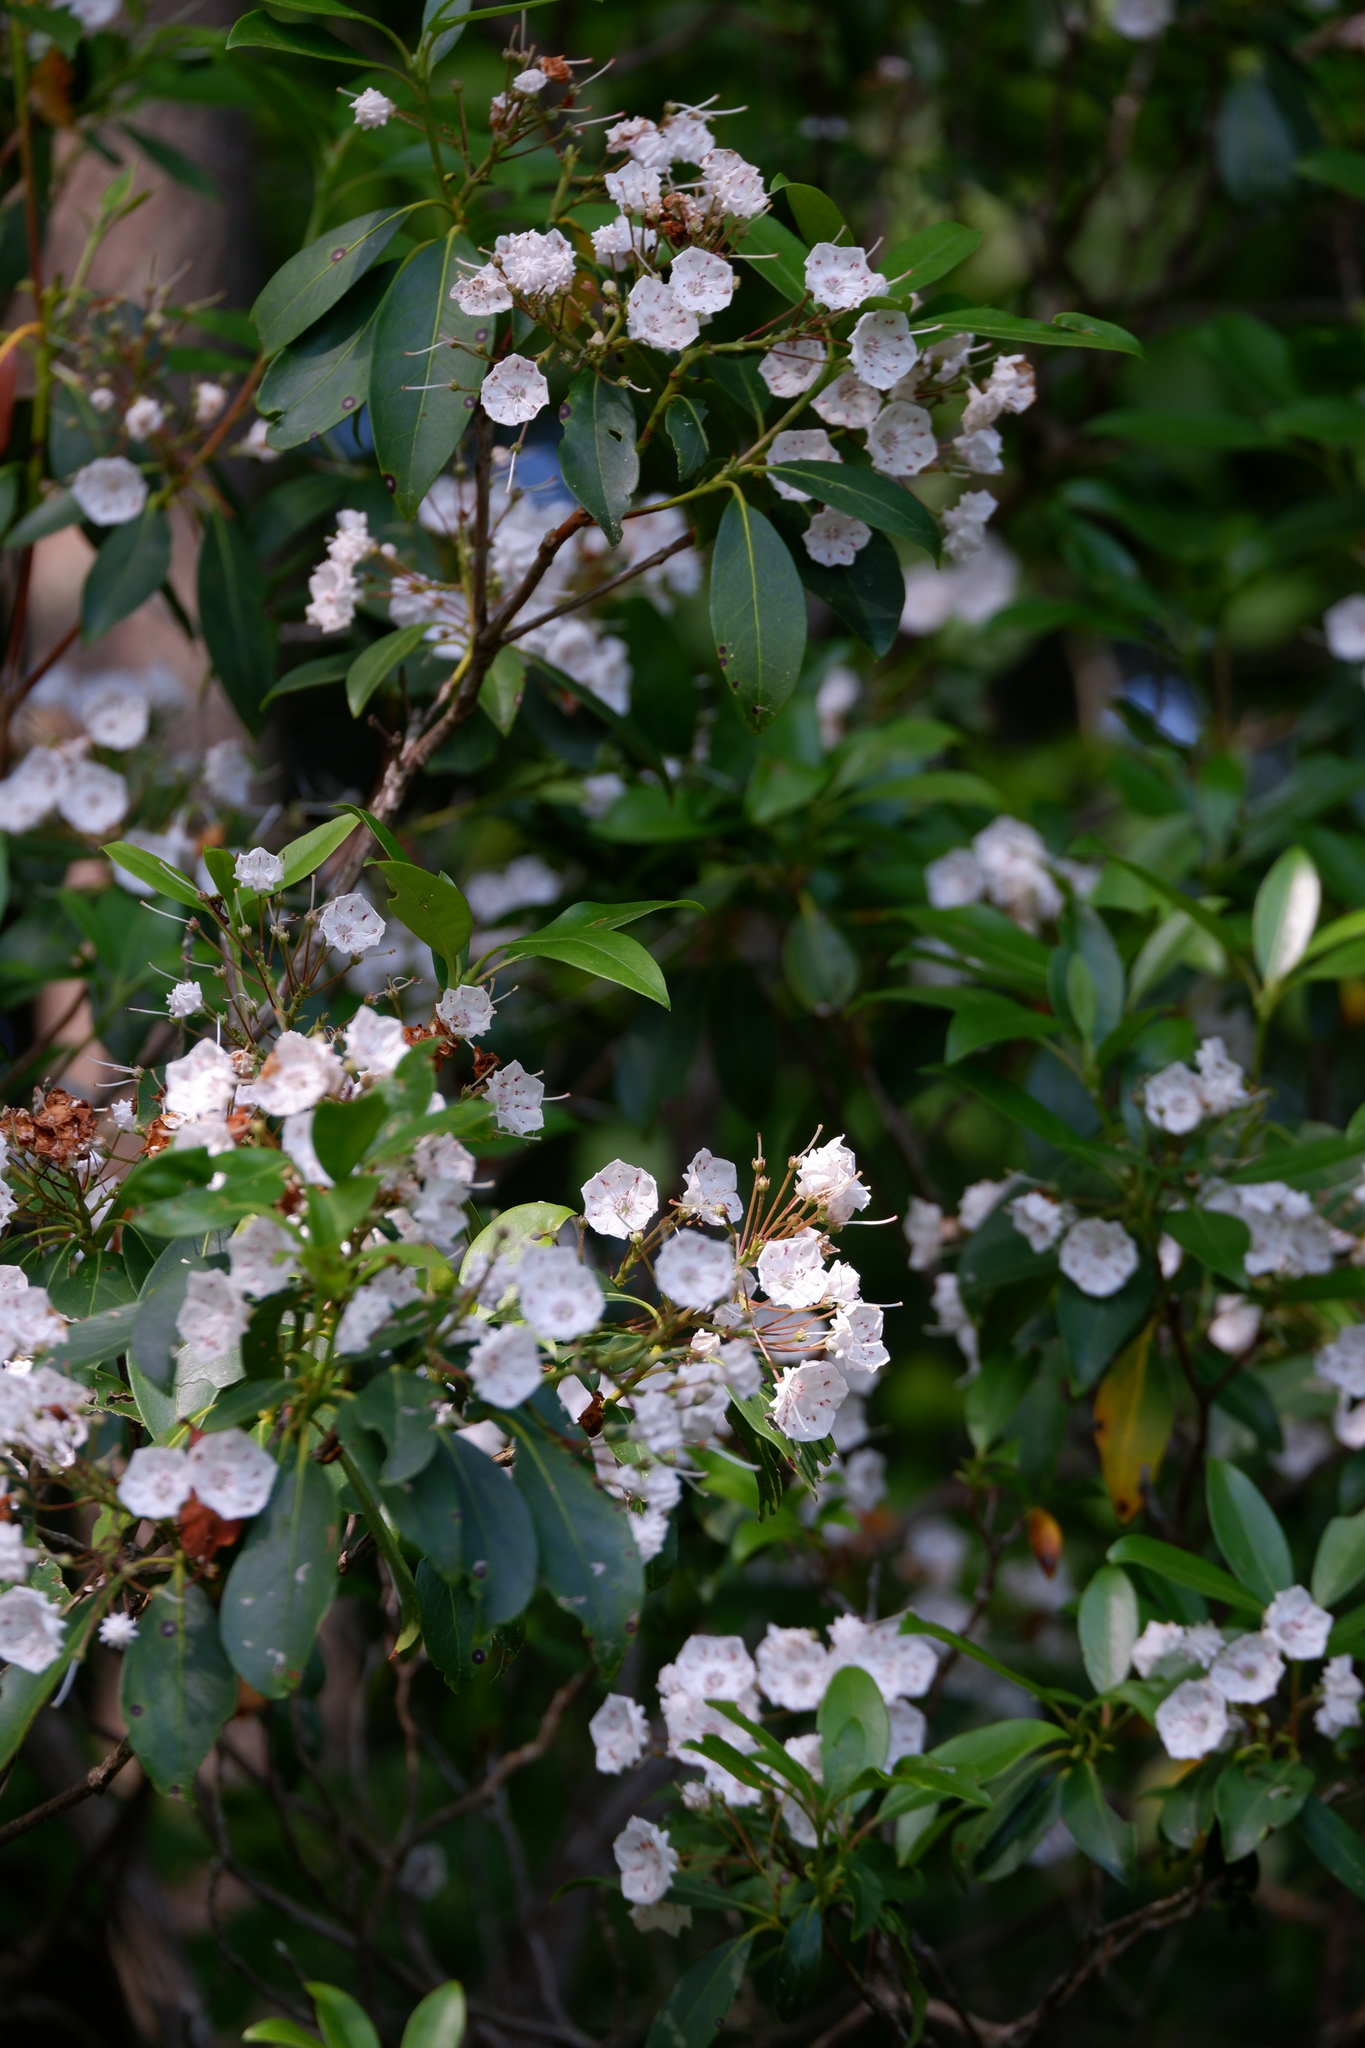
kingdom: Plantae
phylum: Tracheophyta
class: Magnoliopsida
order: Ericales
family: Ericaceae
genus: Kalmia
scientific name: Kalmia latifolia
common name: Mountain-laurel
